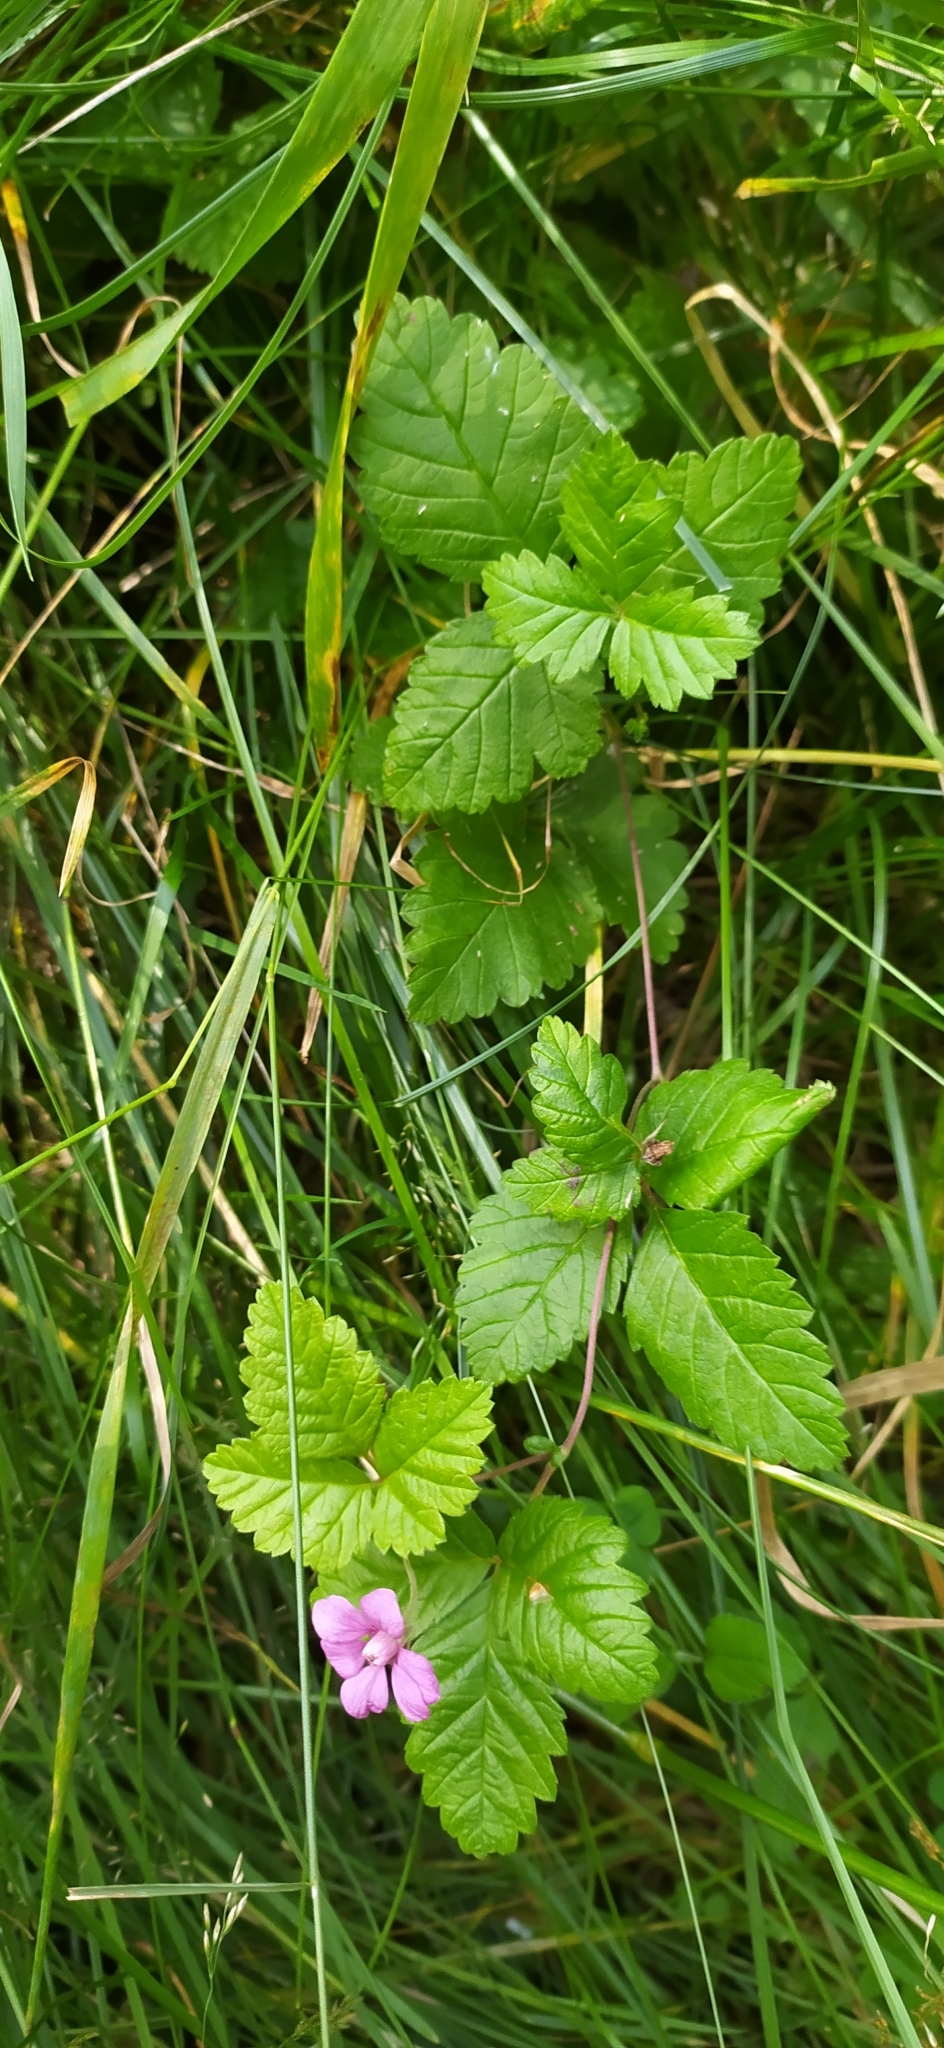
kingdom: Plantae
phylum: Tracheophyta
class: Magnoliopsida
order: Rosales
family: Rosaceae
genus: Rubus
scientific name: Rubus arcticus
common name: Arctic bramble
